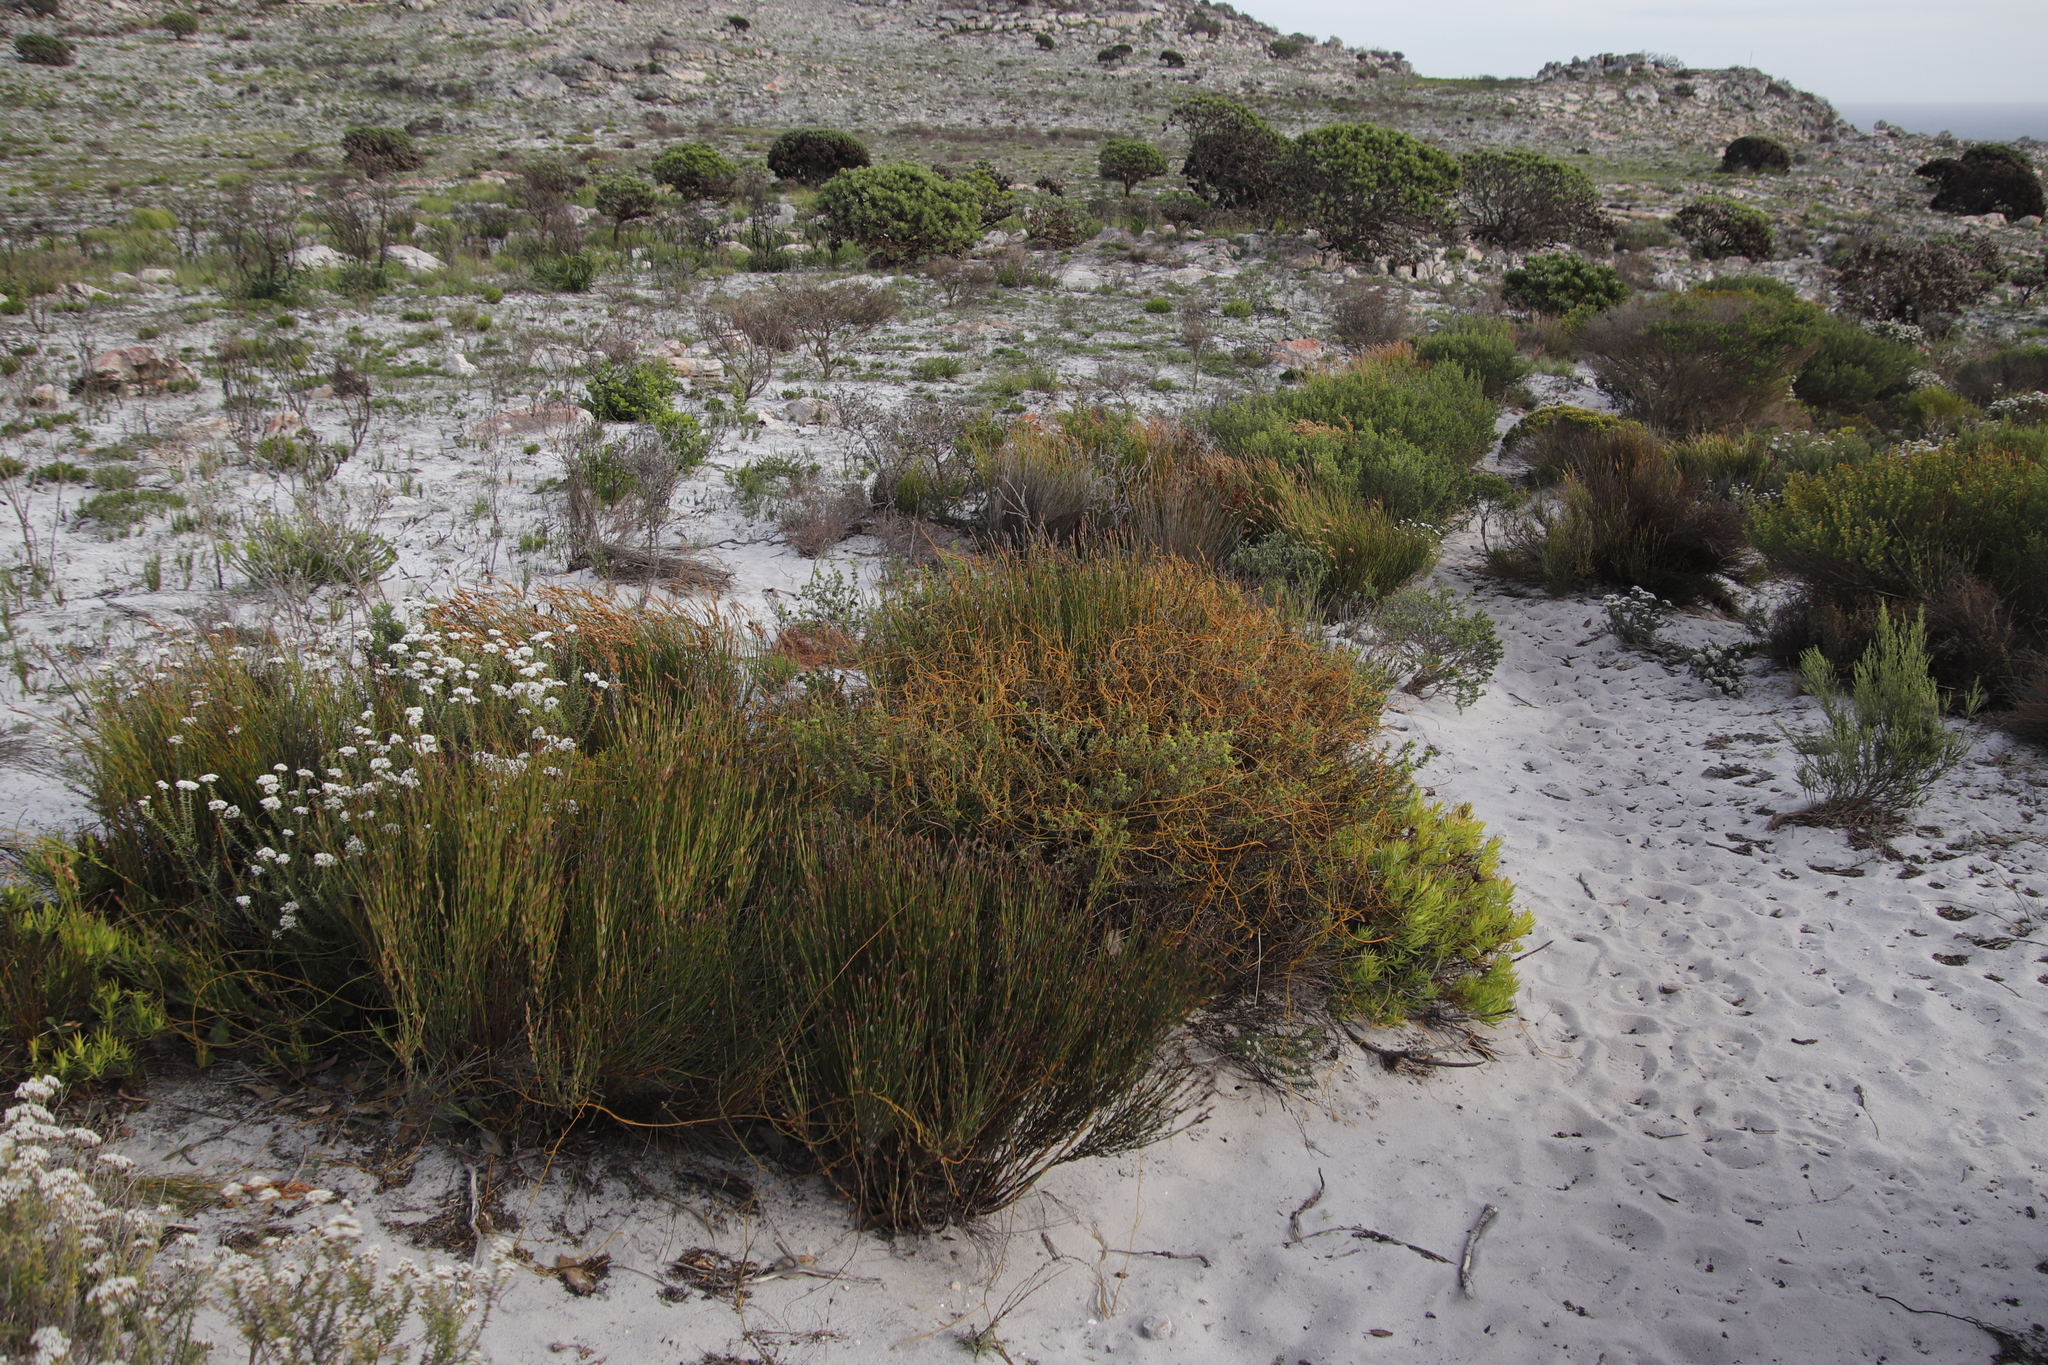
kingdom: Plantae
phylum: Tracheophyta
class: Magnoliopsida
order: Laurales
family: Lauraceae
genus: Cassytha
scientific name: Cassytha ciliolata
